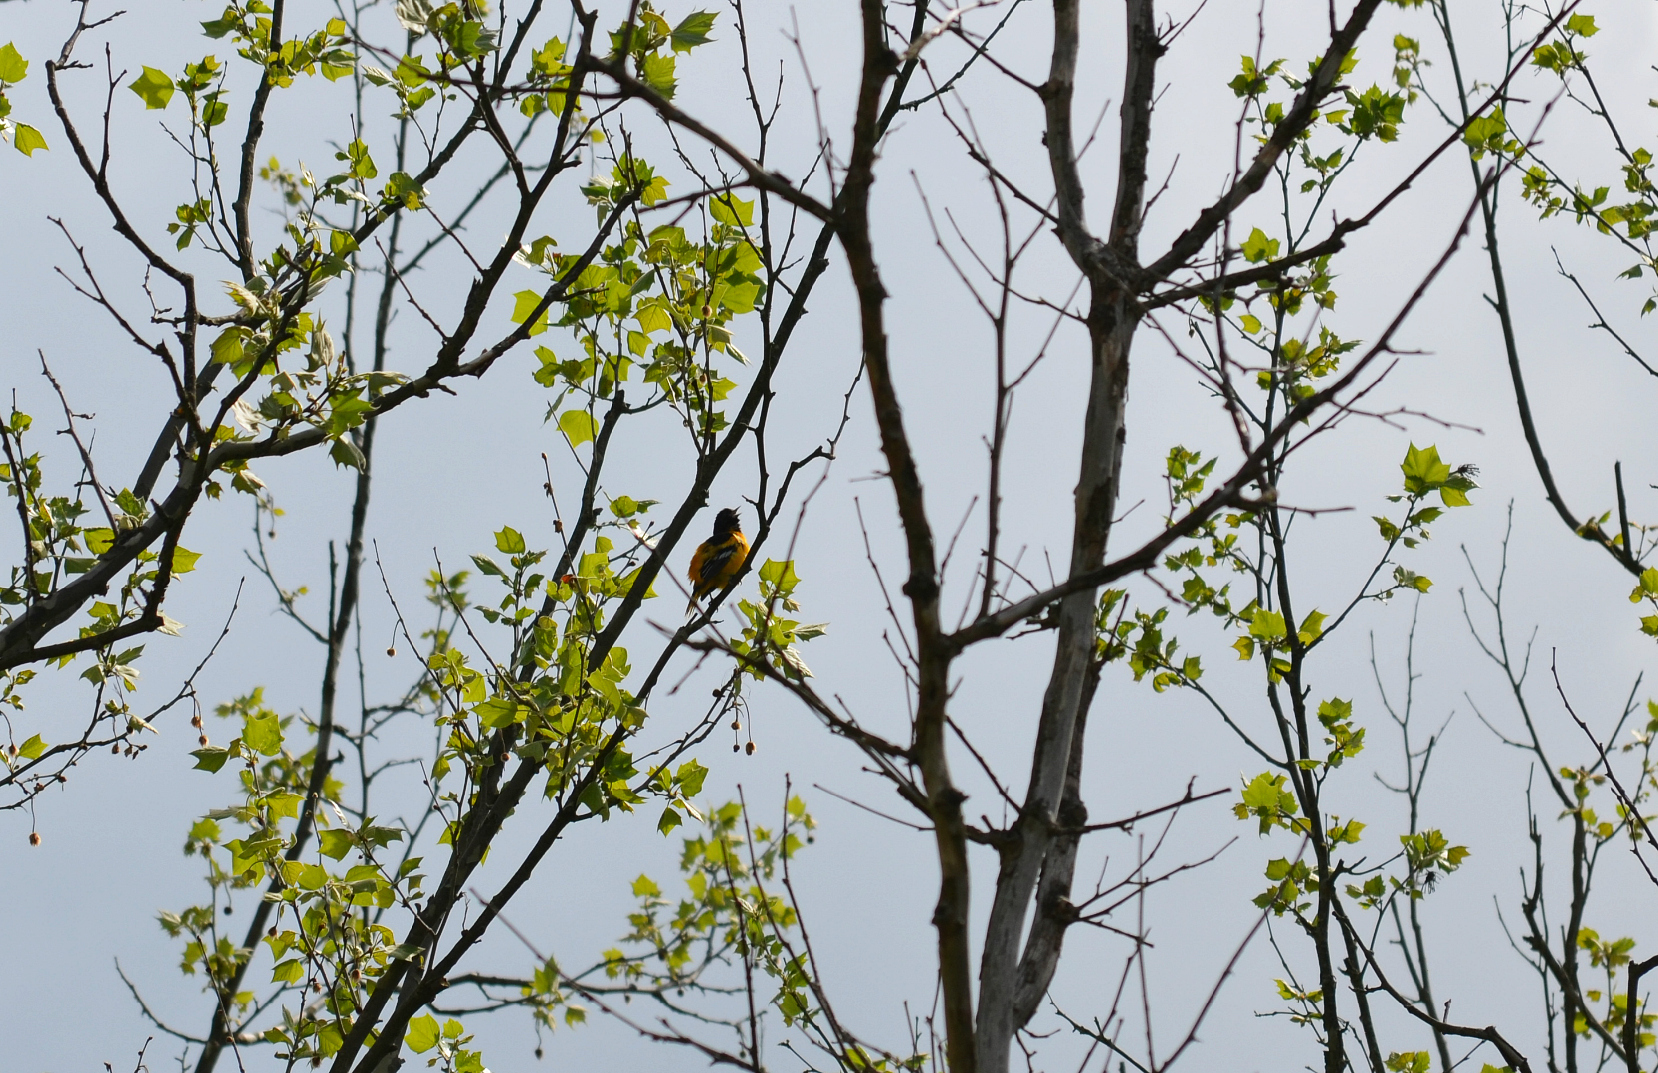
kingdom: Animalia
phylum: Chordata
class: Aves
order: Passeriformes
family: Icteridae
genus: Icterus
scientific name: Icterus galbula
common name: Baltimore oriole
